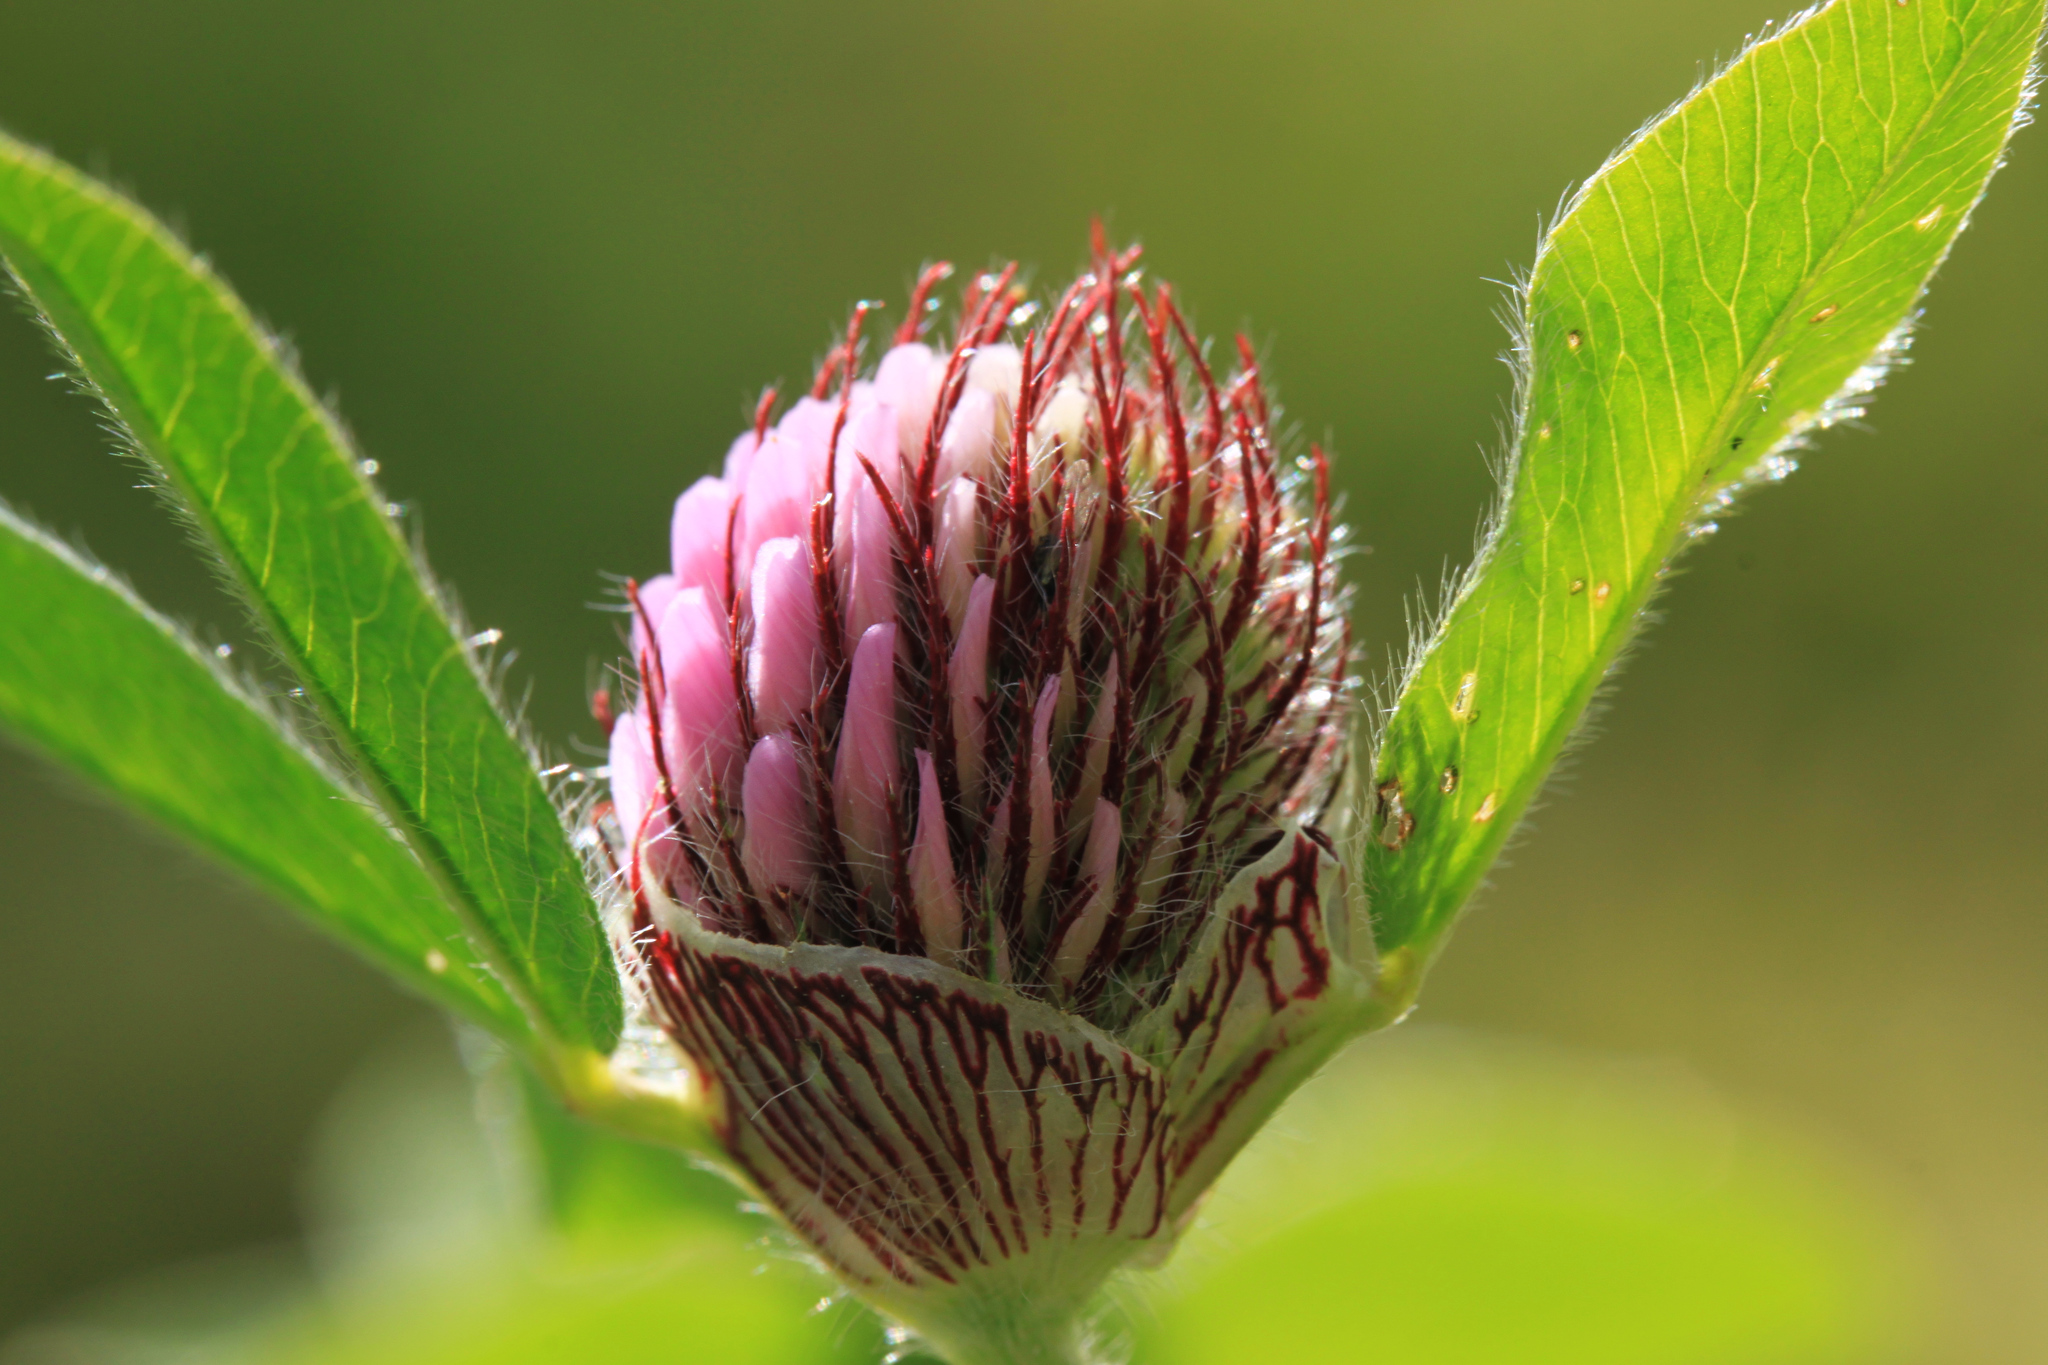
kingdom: Plantae
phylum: Tracheophyta
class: Magnoliopsida
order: Fabales
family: Fabaceae
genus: Trifolium
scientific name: Trifolium pratense
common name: Red clover
